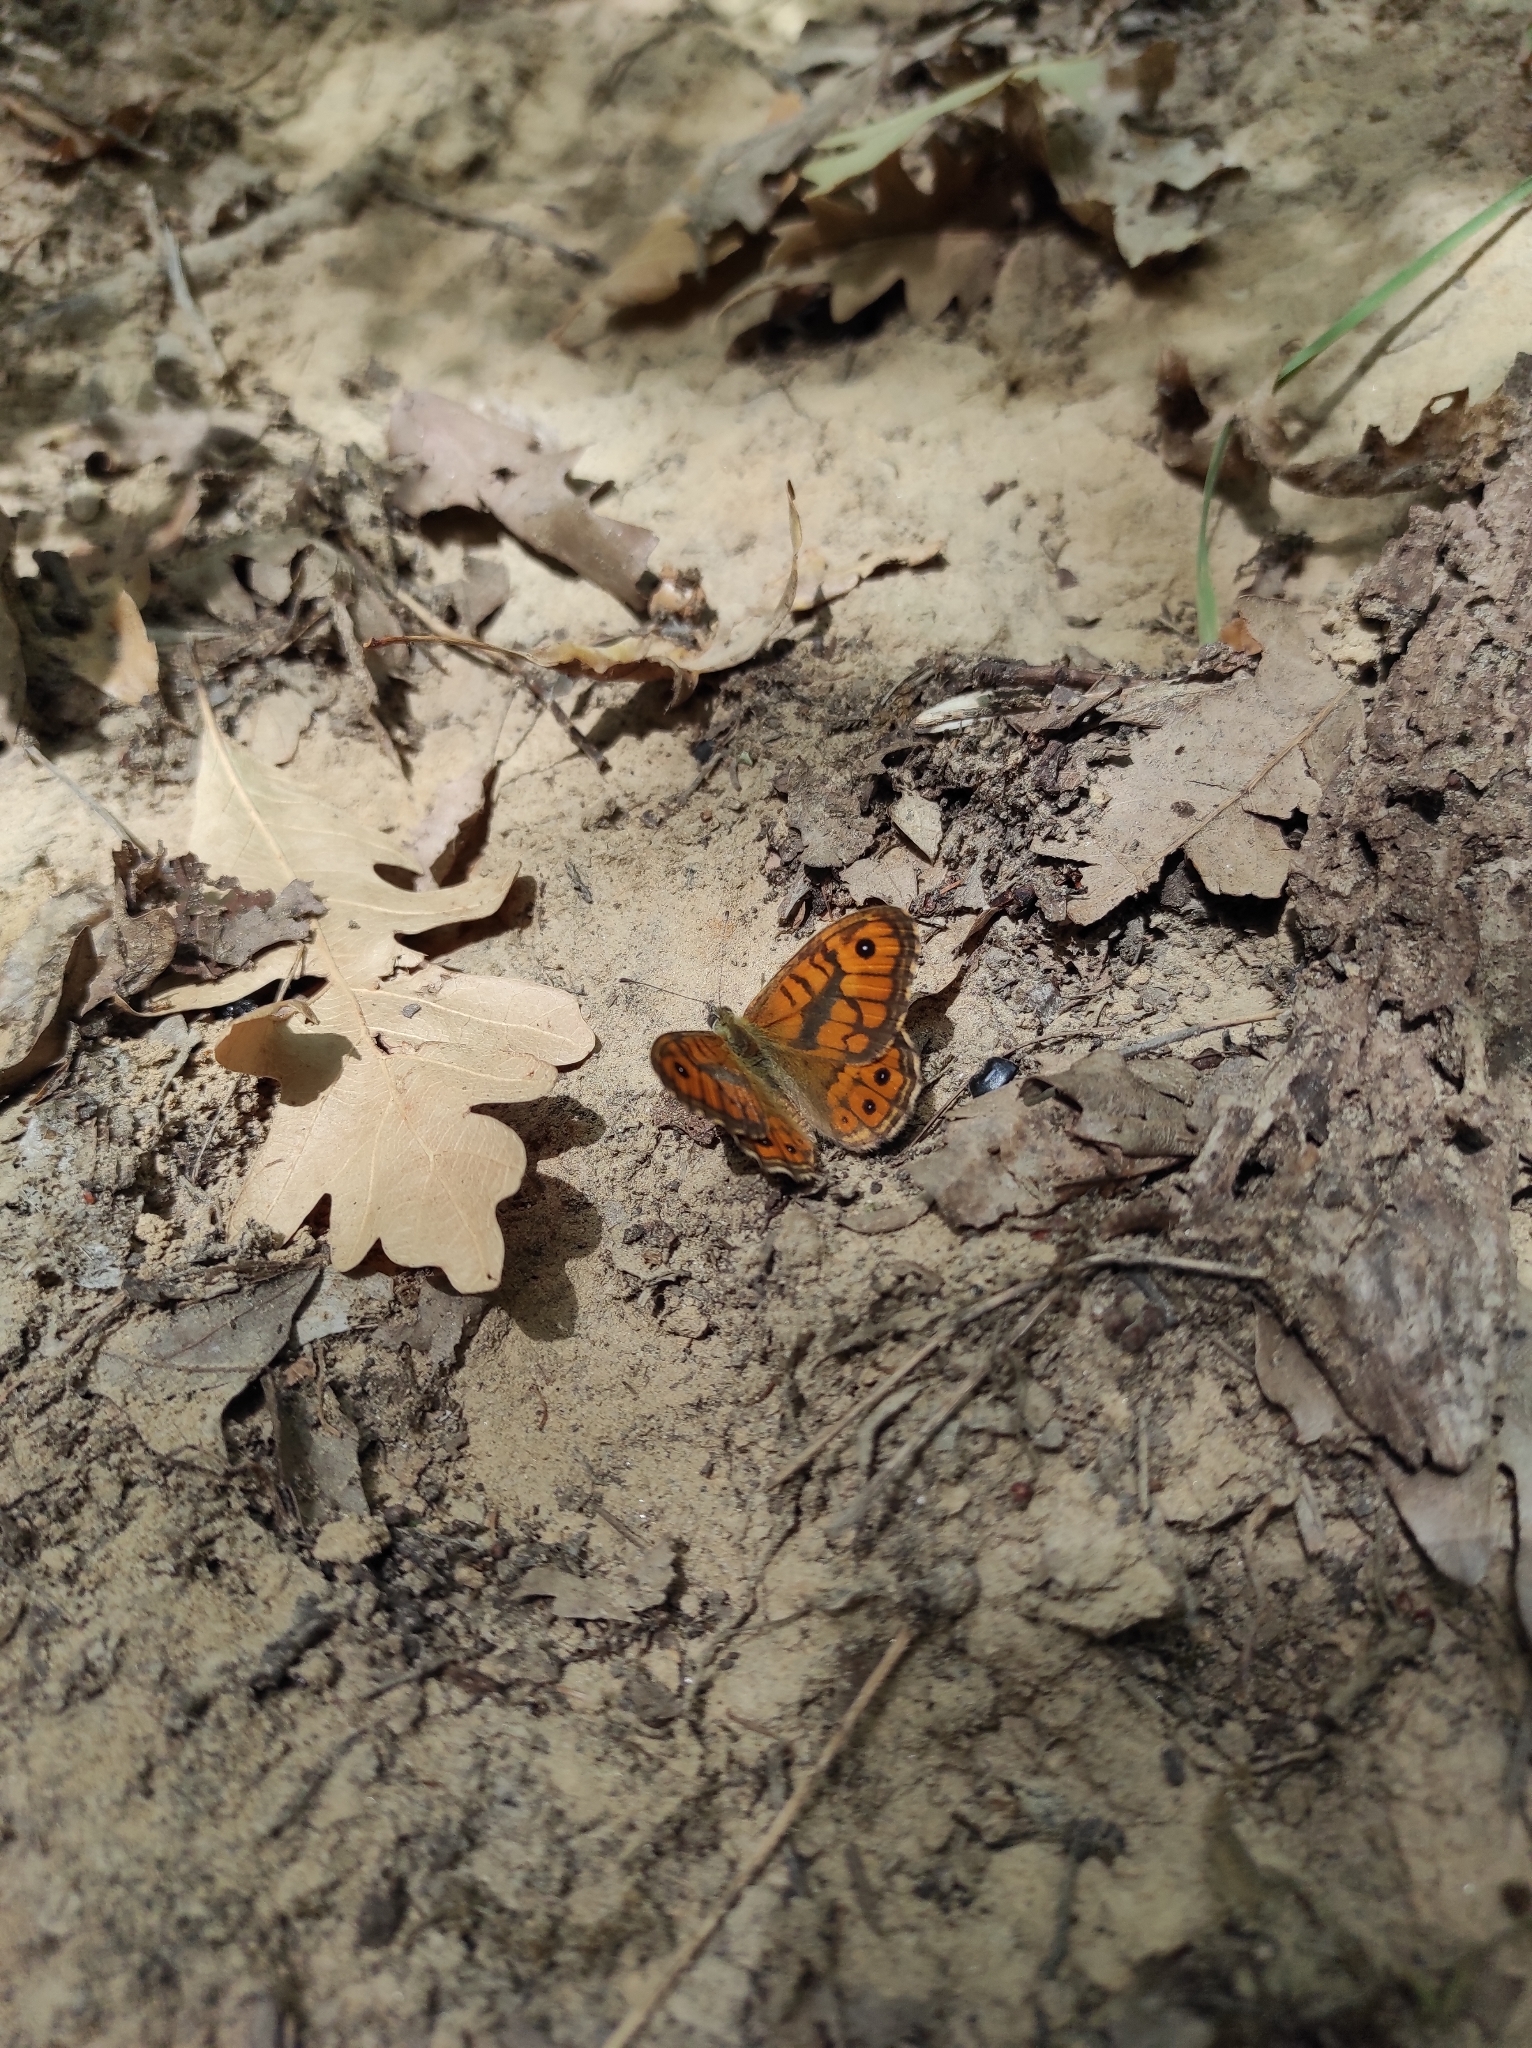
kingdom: Animalia
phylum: Arthropoda
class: Insecta
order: Lepidoptera
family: Nymphalidae
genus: Pararge
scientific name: Pararge Lasiommata megera
